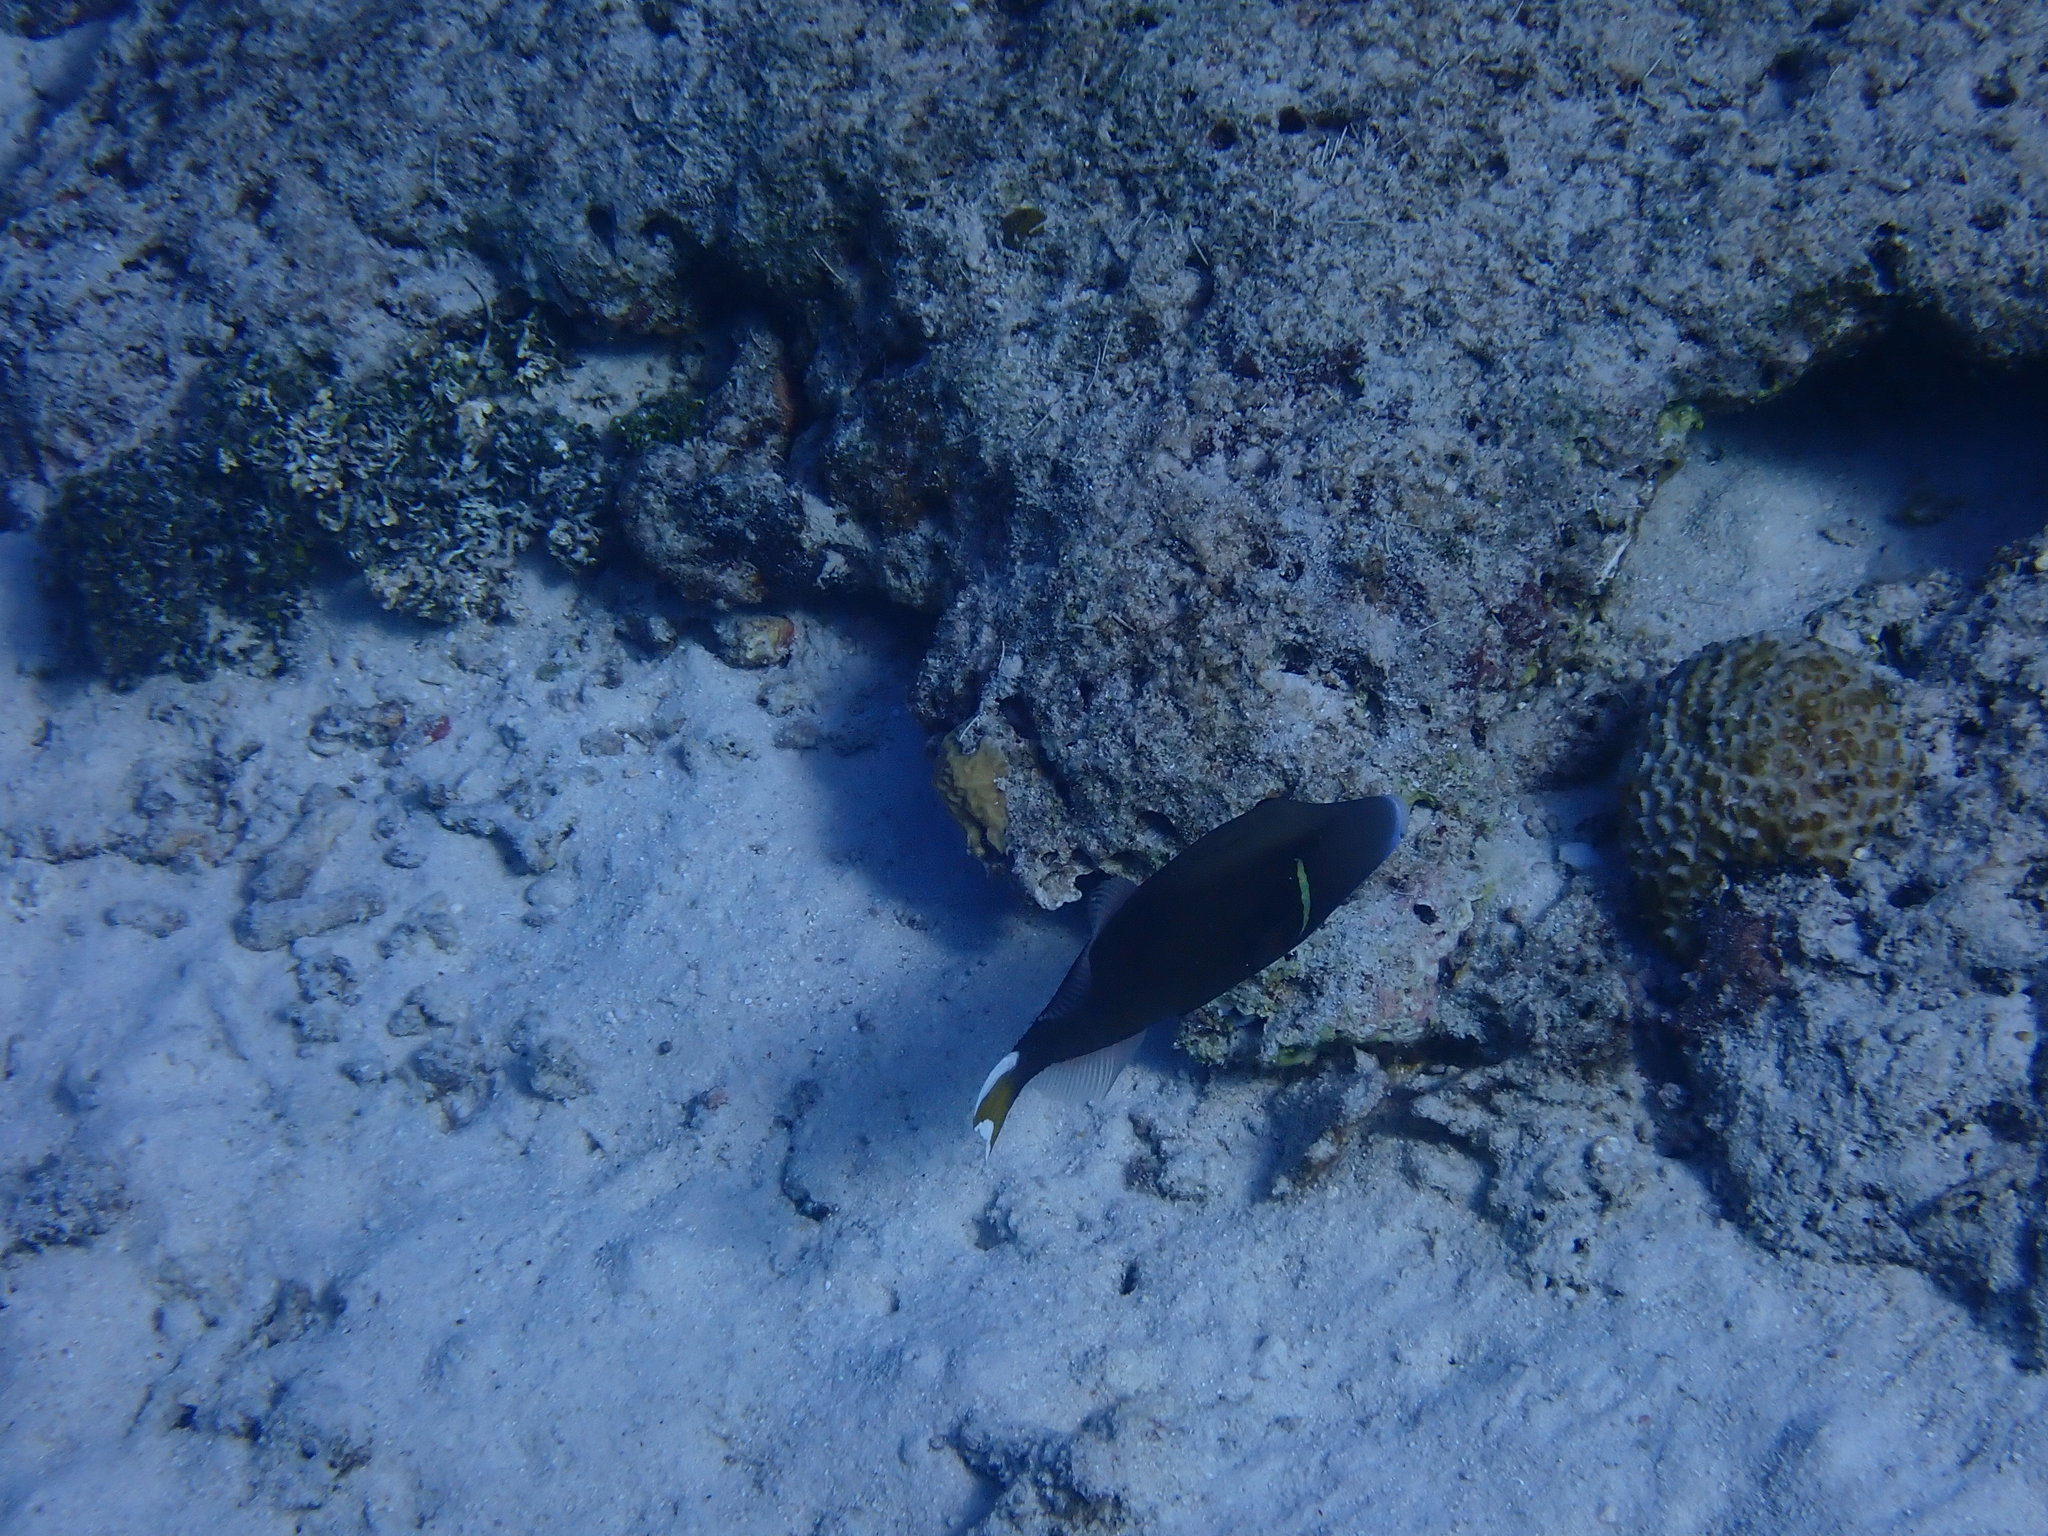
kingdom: Animalia
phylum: Chordata
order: Tetraodontiformes
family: Balistidae
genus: Sufflamen
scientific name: Sufflamen chrysopterum
